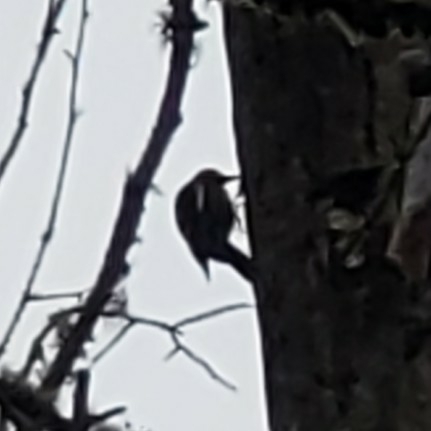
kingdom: Animalia
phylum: Chordata
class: Aves
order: Piciformes
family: Picidae
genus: Sphyrapicus
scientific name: Sphyrapicus ruber
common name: Red-breasted sapsucker
